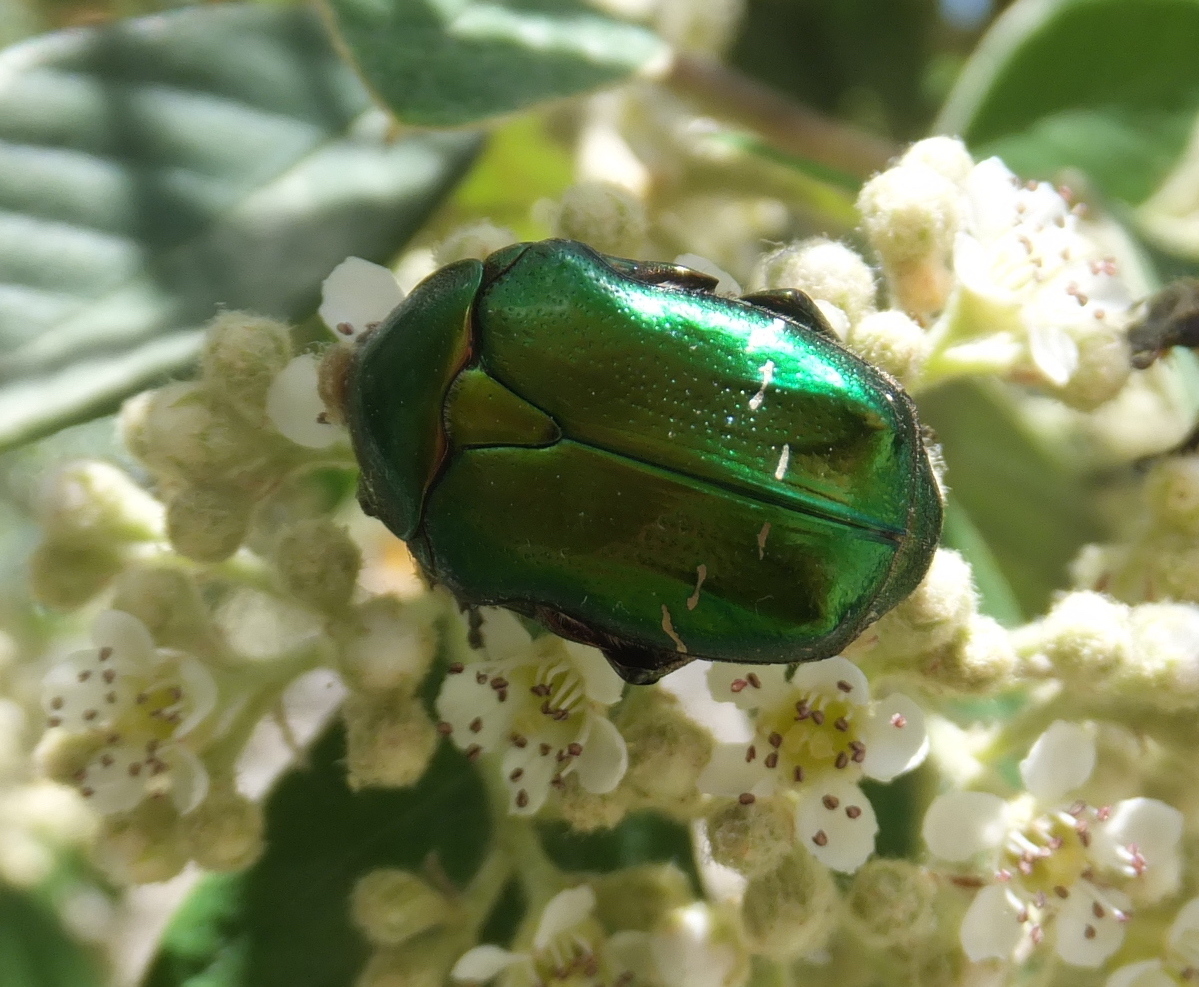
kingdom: Animalia
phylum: Arthropoda
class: Insecta
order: Coleoptera
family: Scarabaeidae
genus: Cetonia
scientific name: Cetonia aurata
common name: Rose chafer
